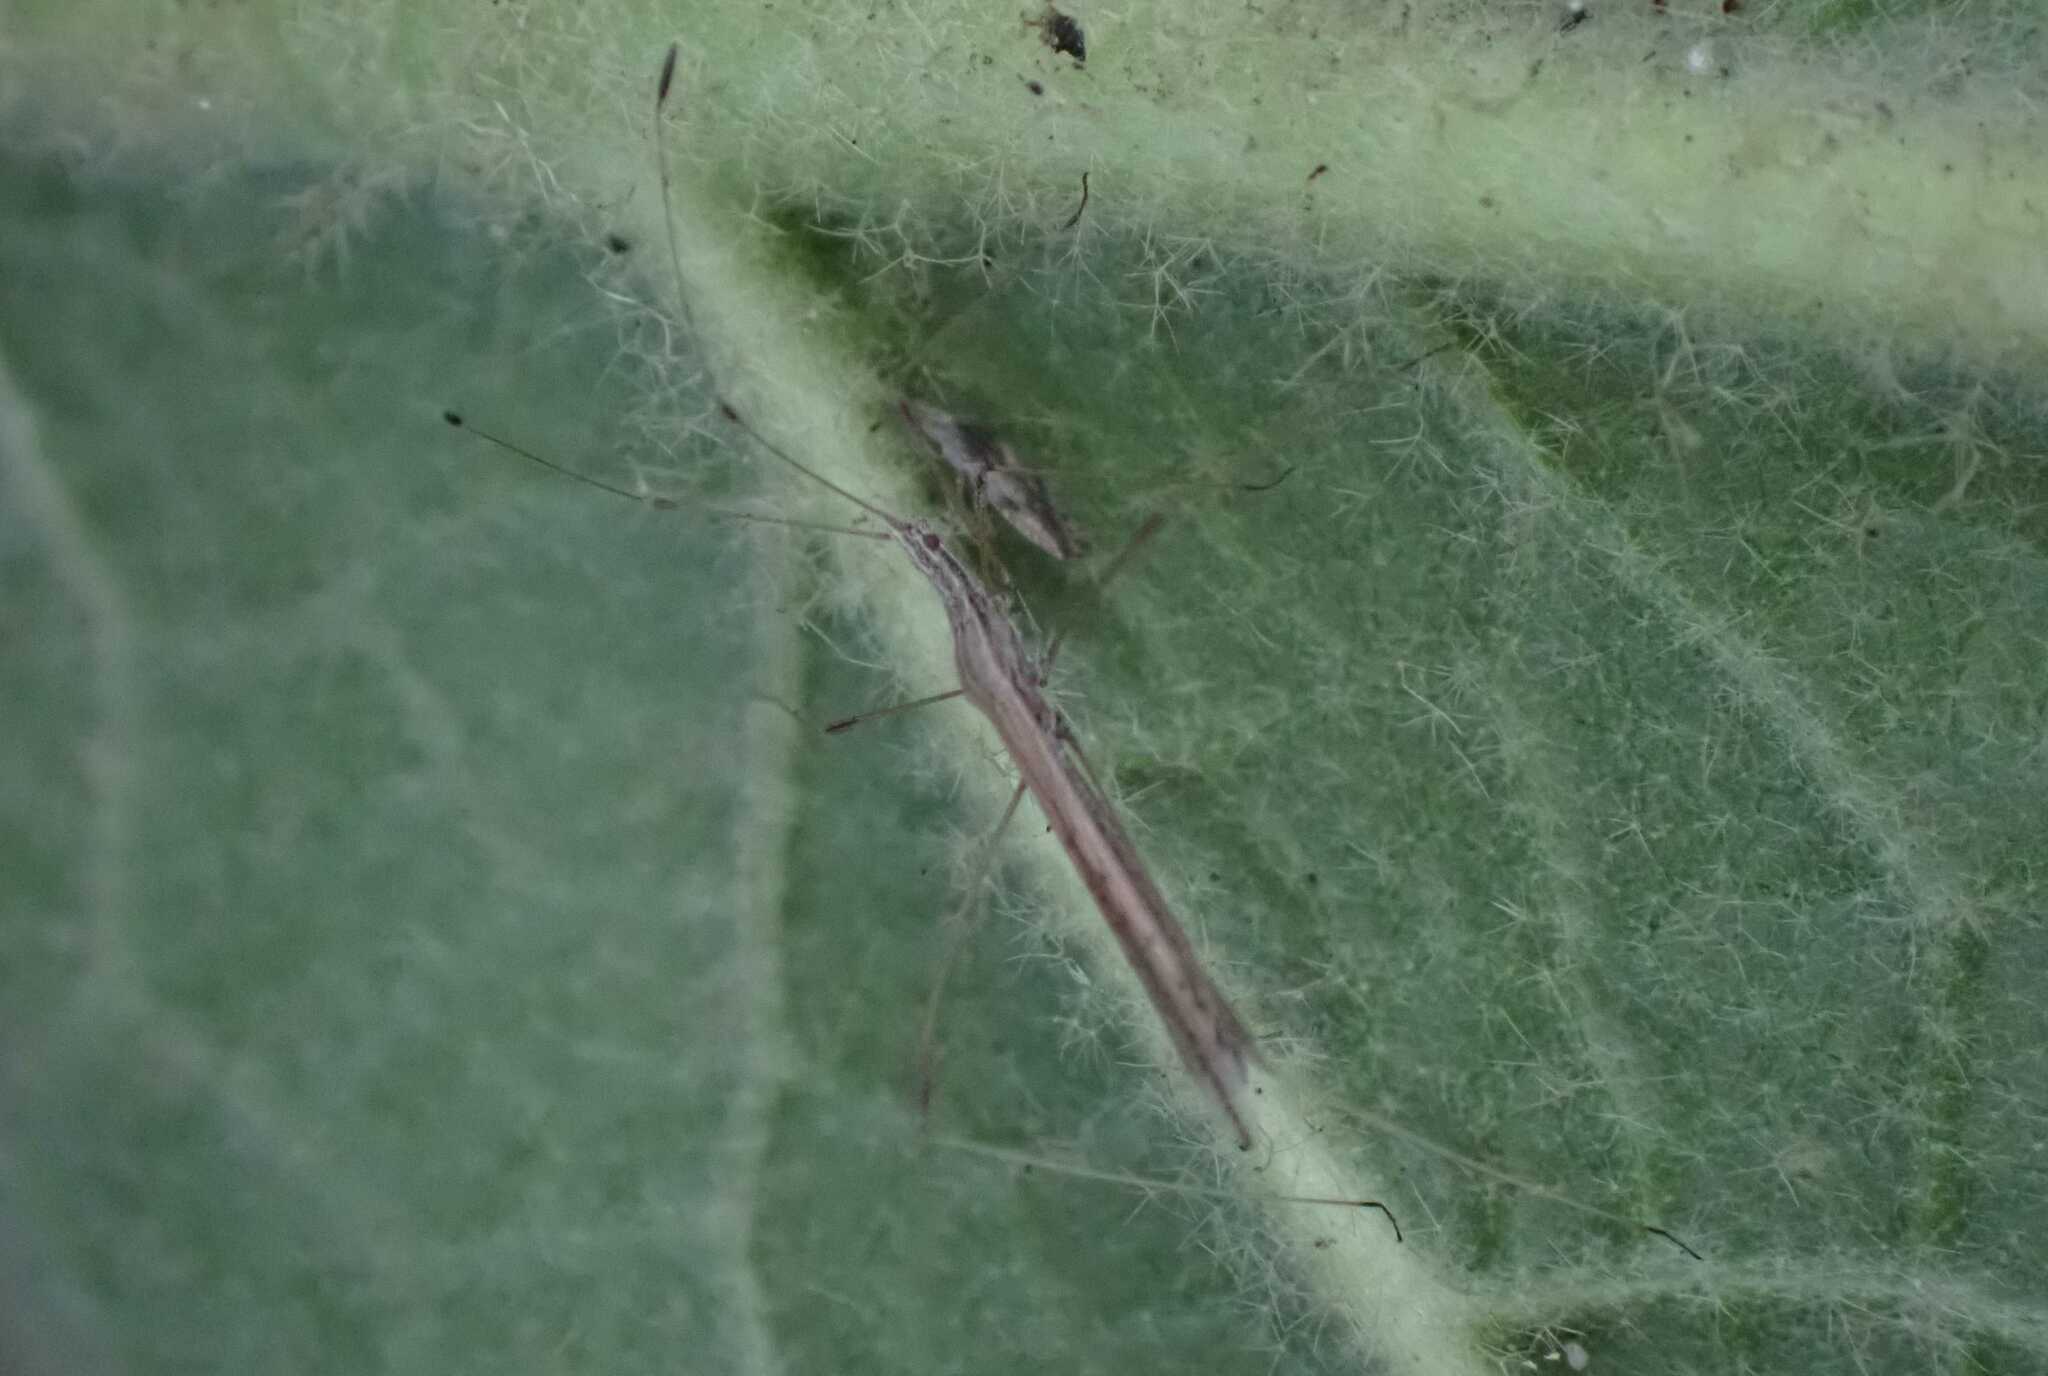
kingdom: Animalia
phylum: Arthropoda
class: Insecta
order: Hemiptera
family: Berytidae
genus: Neides
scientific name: Neides tipularius
